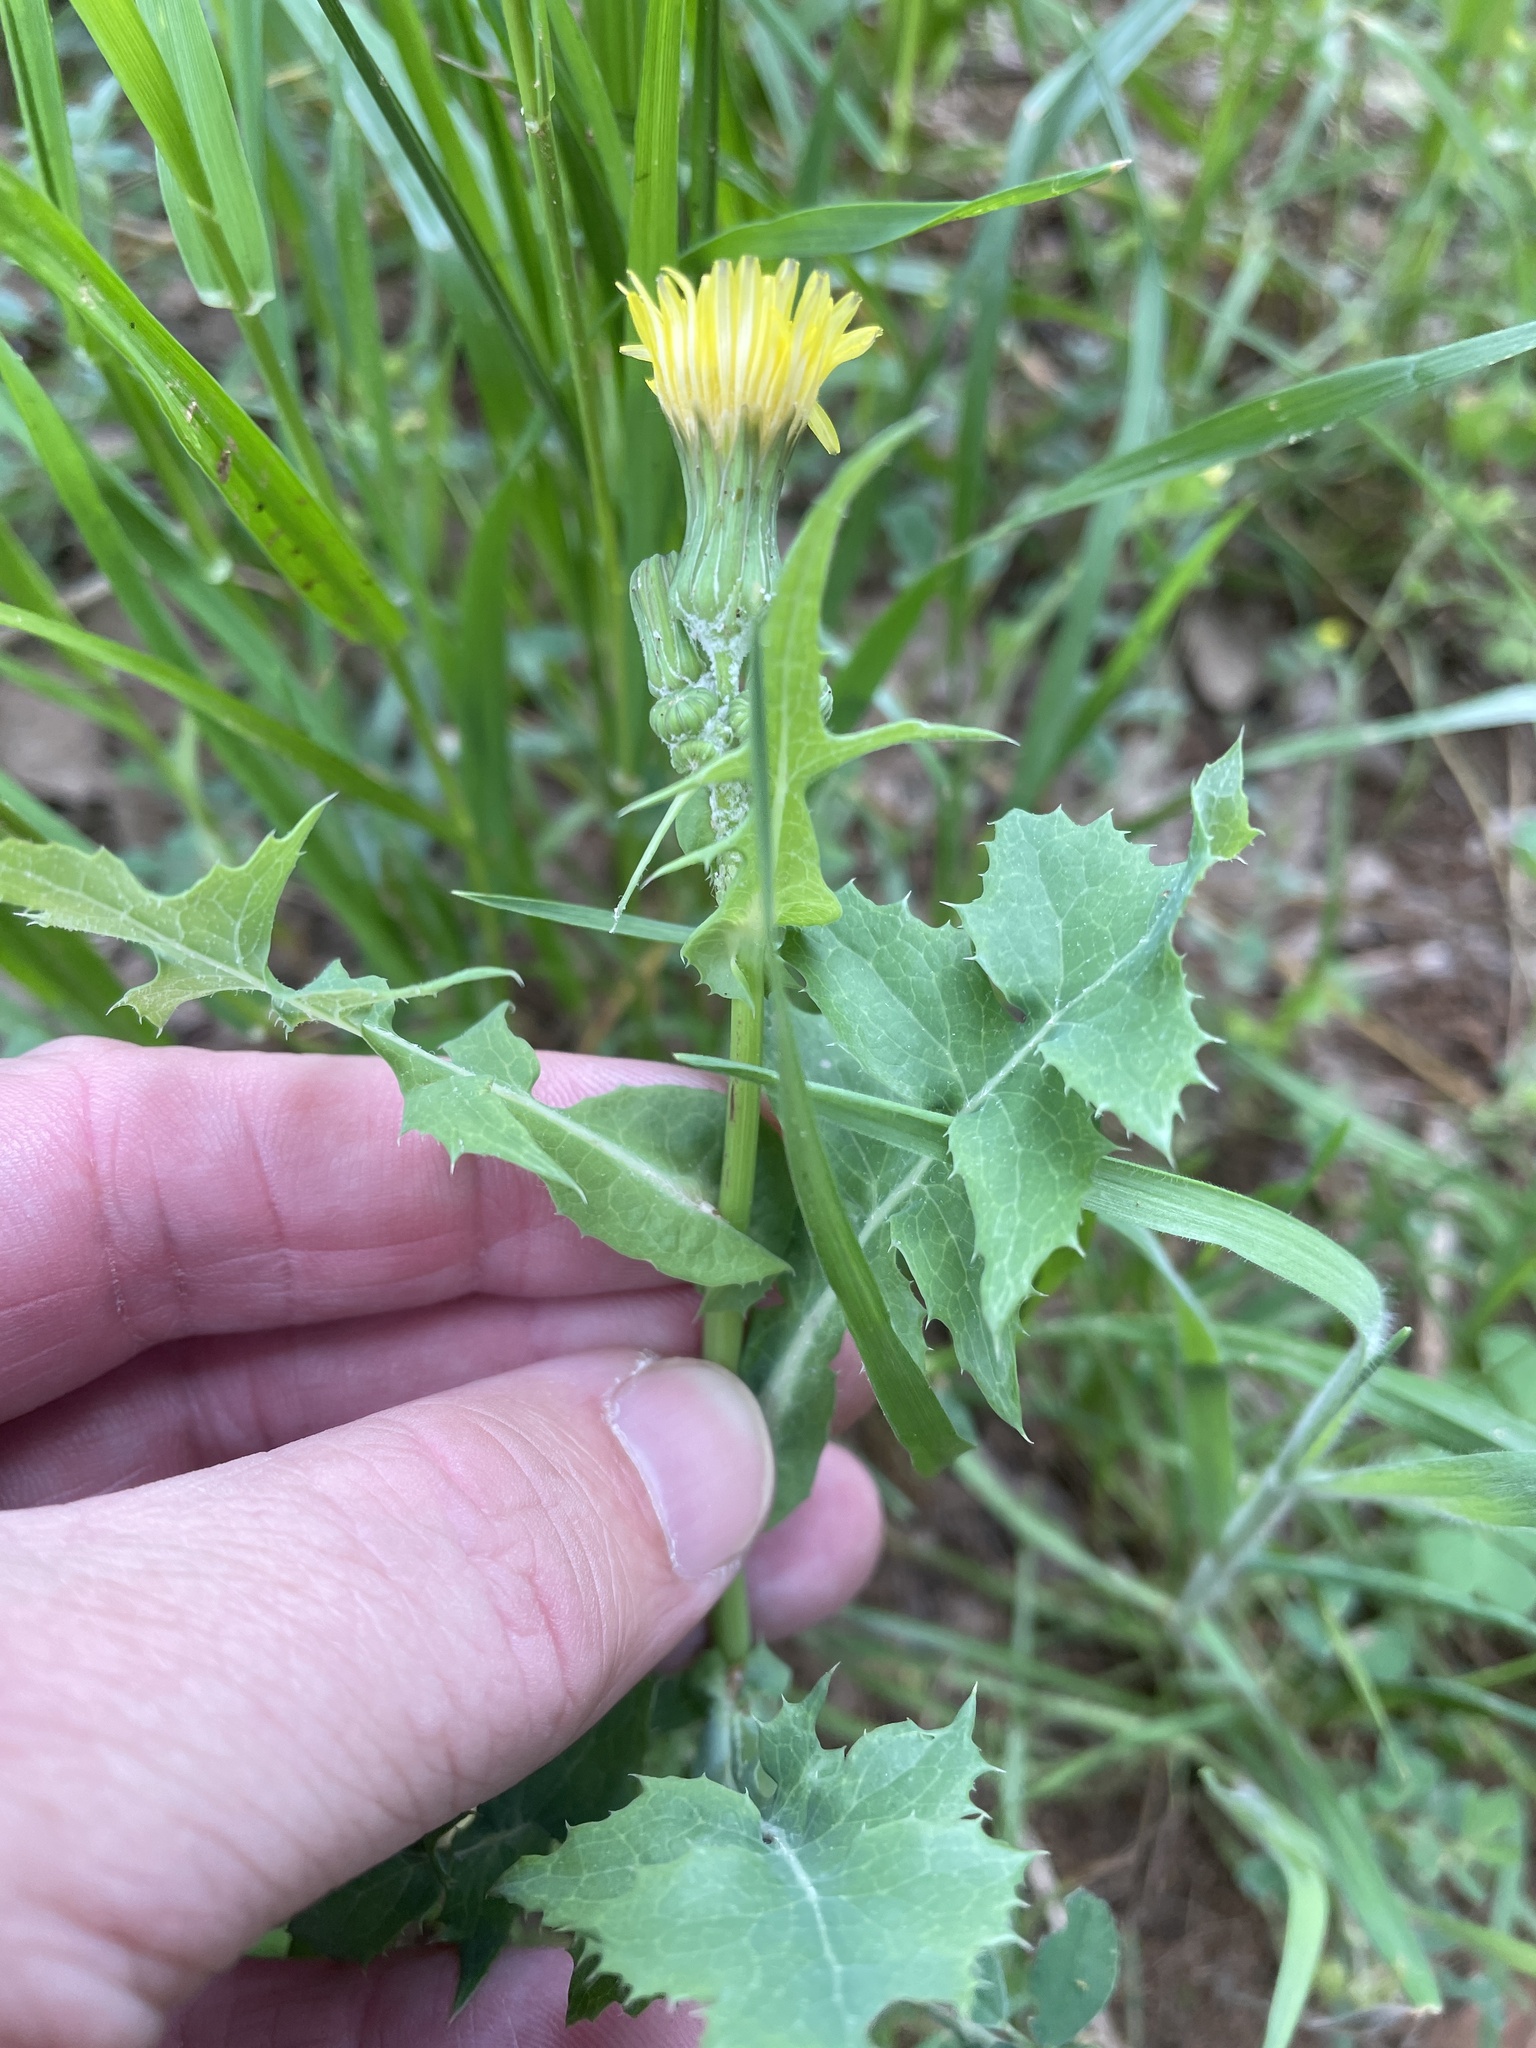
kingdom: Plantae
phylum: Tracheophyta
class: Magnoliopsida
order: Asterales
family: Asteraceae
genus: Sonchus
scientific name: Sonchus oleraceus
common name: Common sowthistle
